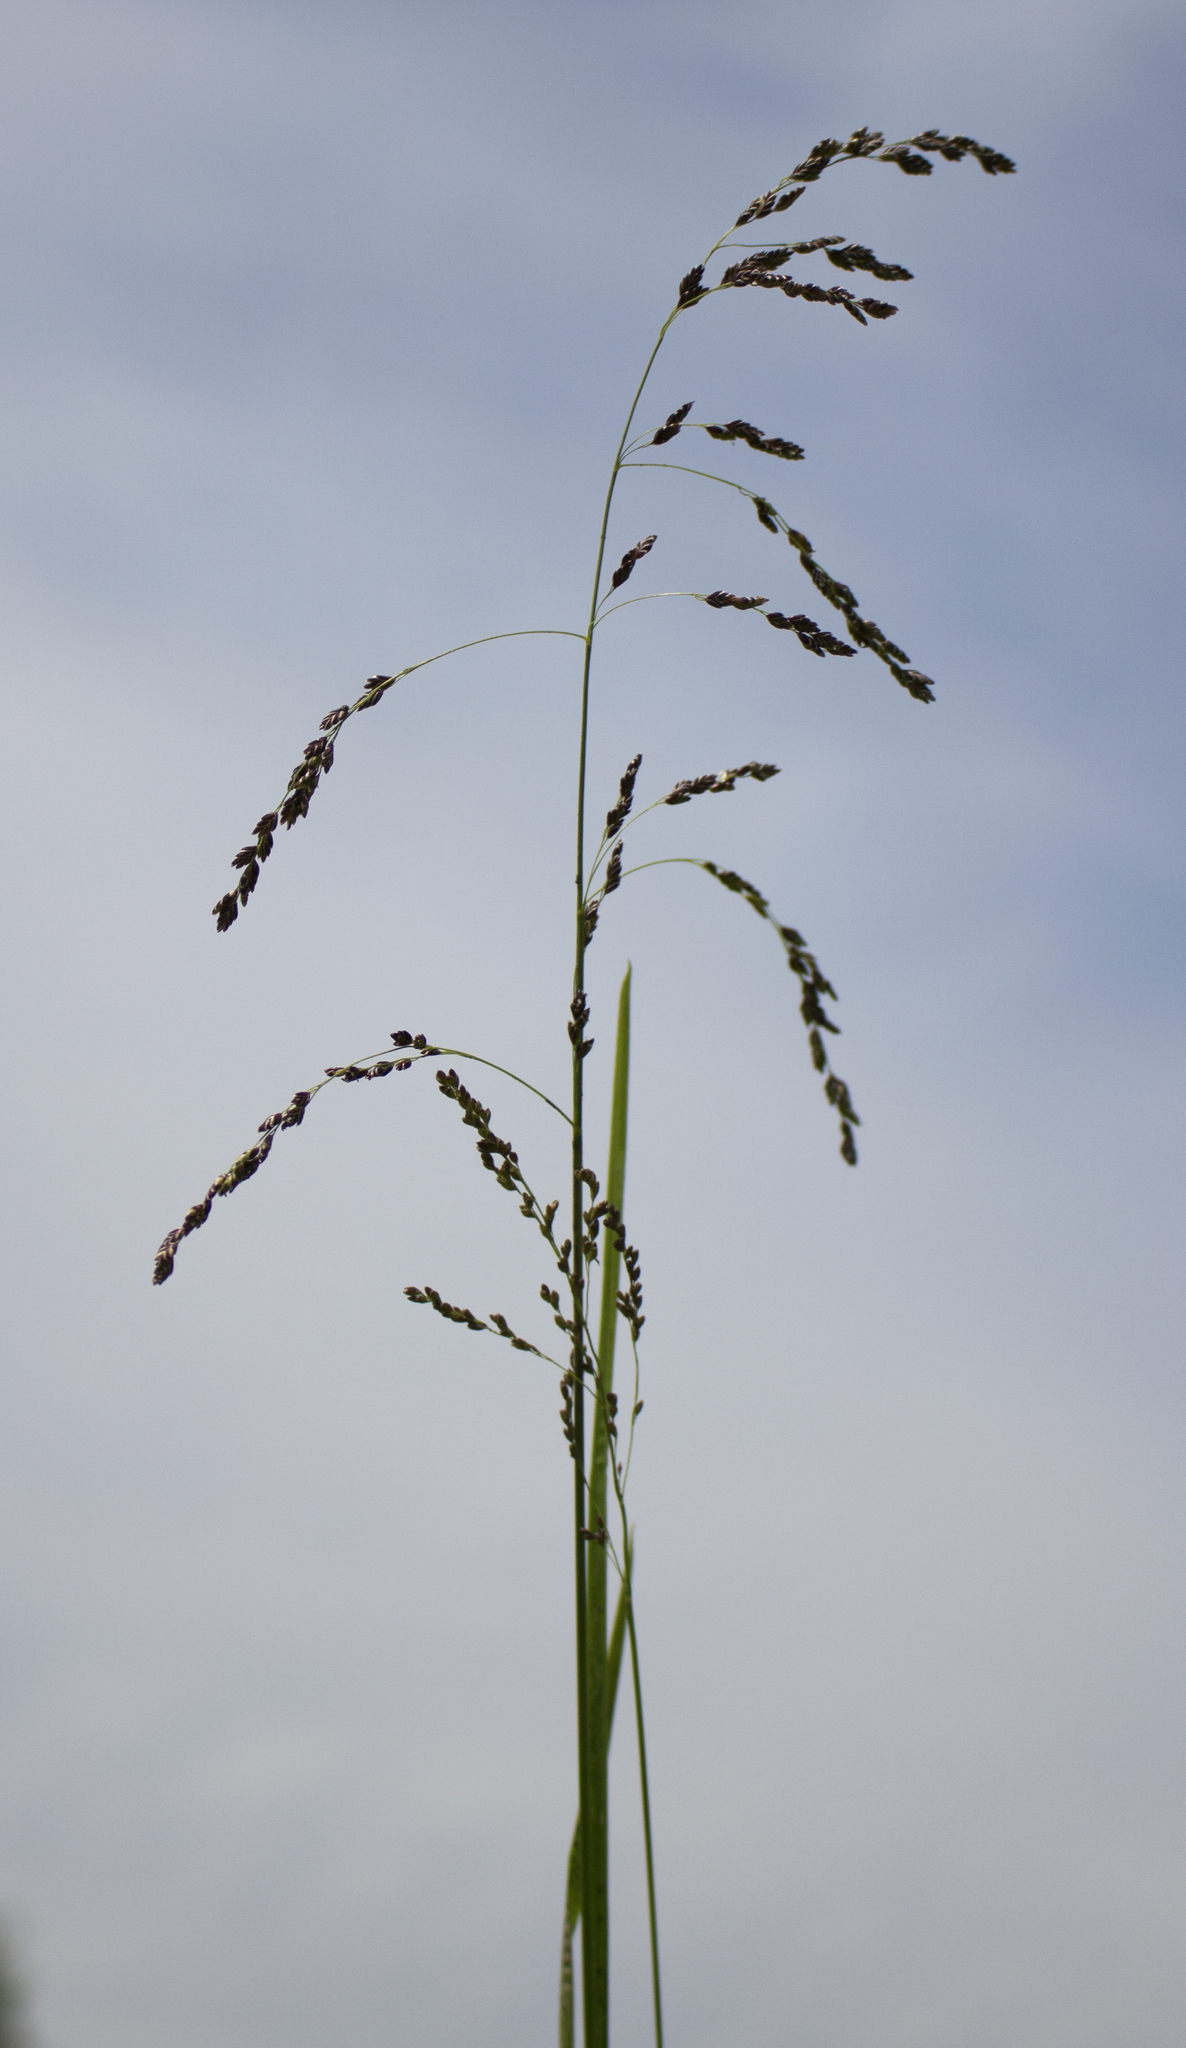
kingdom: Plantae
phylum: Tracheophyta
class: Liliopsida
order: Poales
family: Poaceae
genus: Glyceria
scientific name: Glyceria striata
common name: Fowl manna grass
